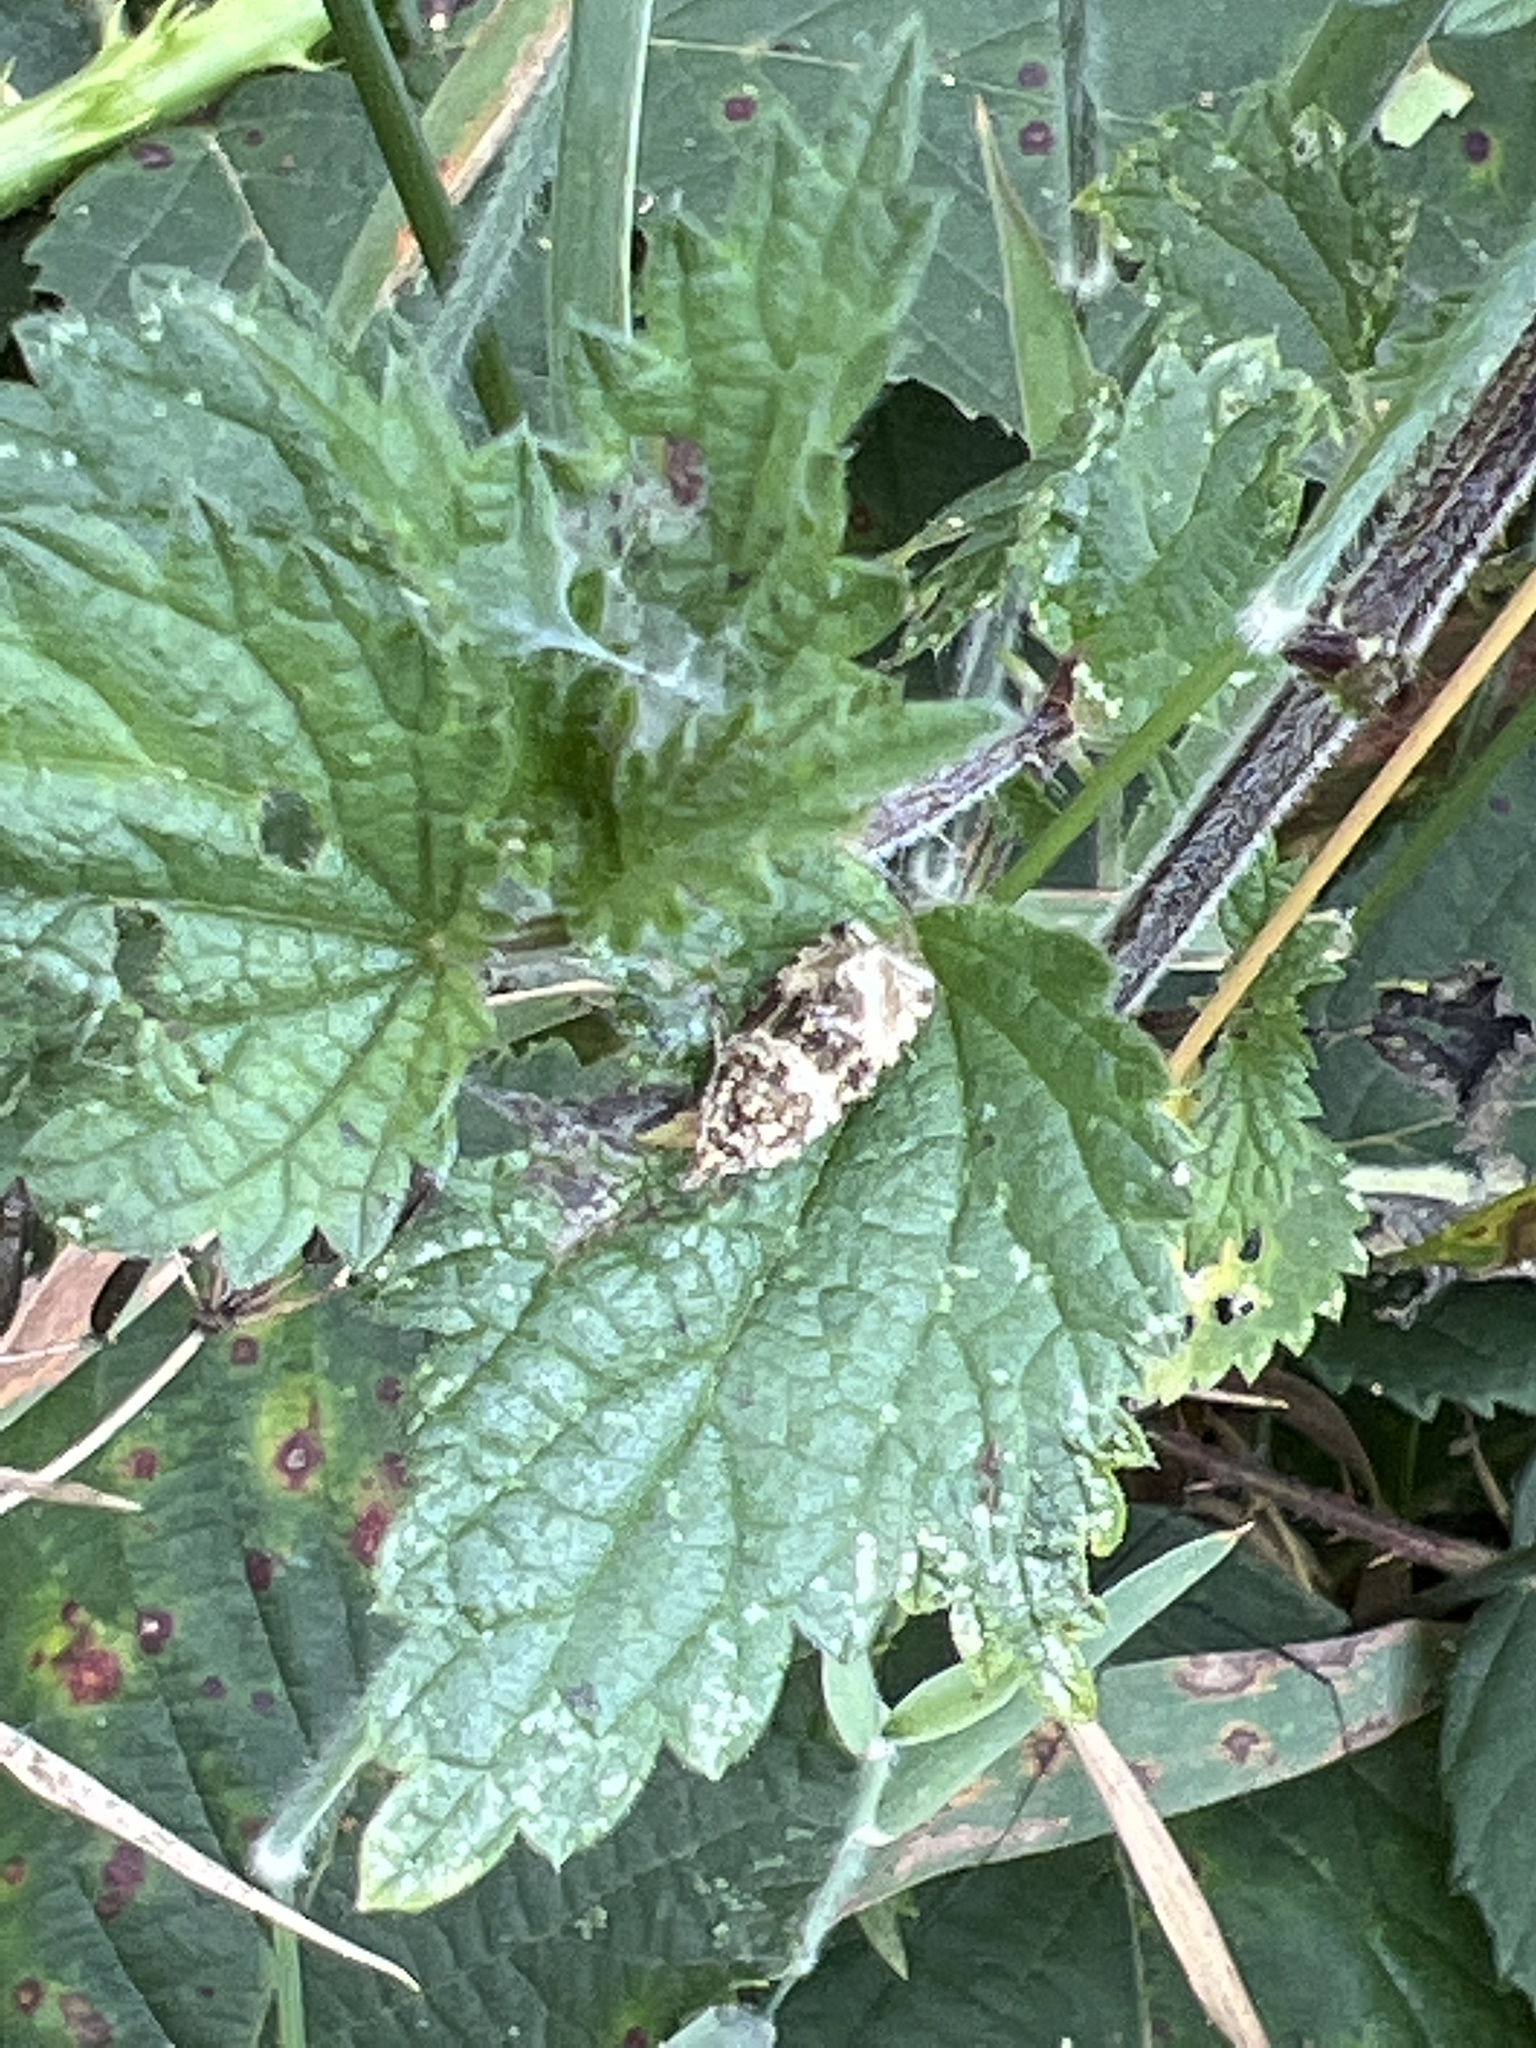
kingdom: Animalia
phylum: Arthropoda
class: Insecta
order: Lepidoptera
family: Tortricidae
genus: Syricoris
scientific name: Syricoris lacunana
